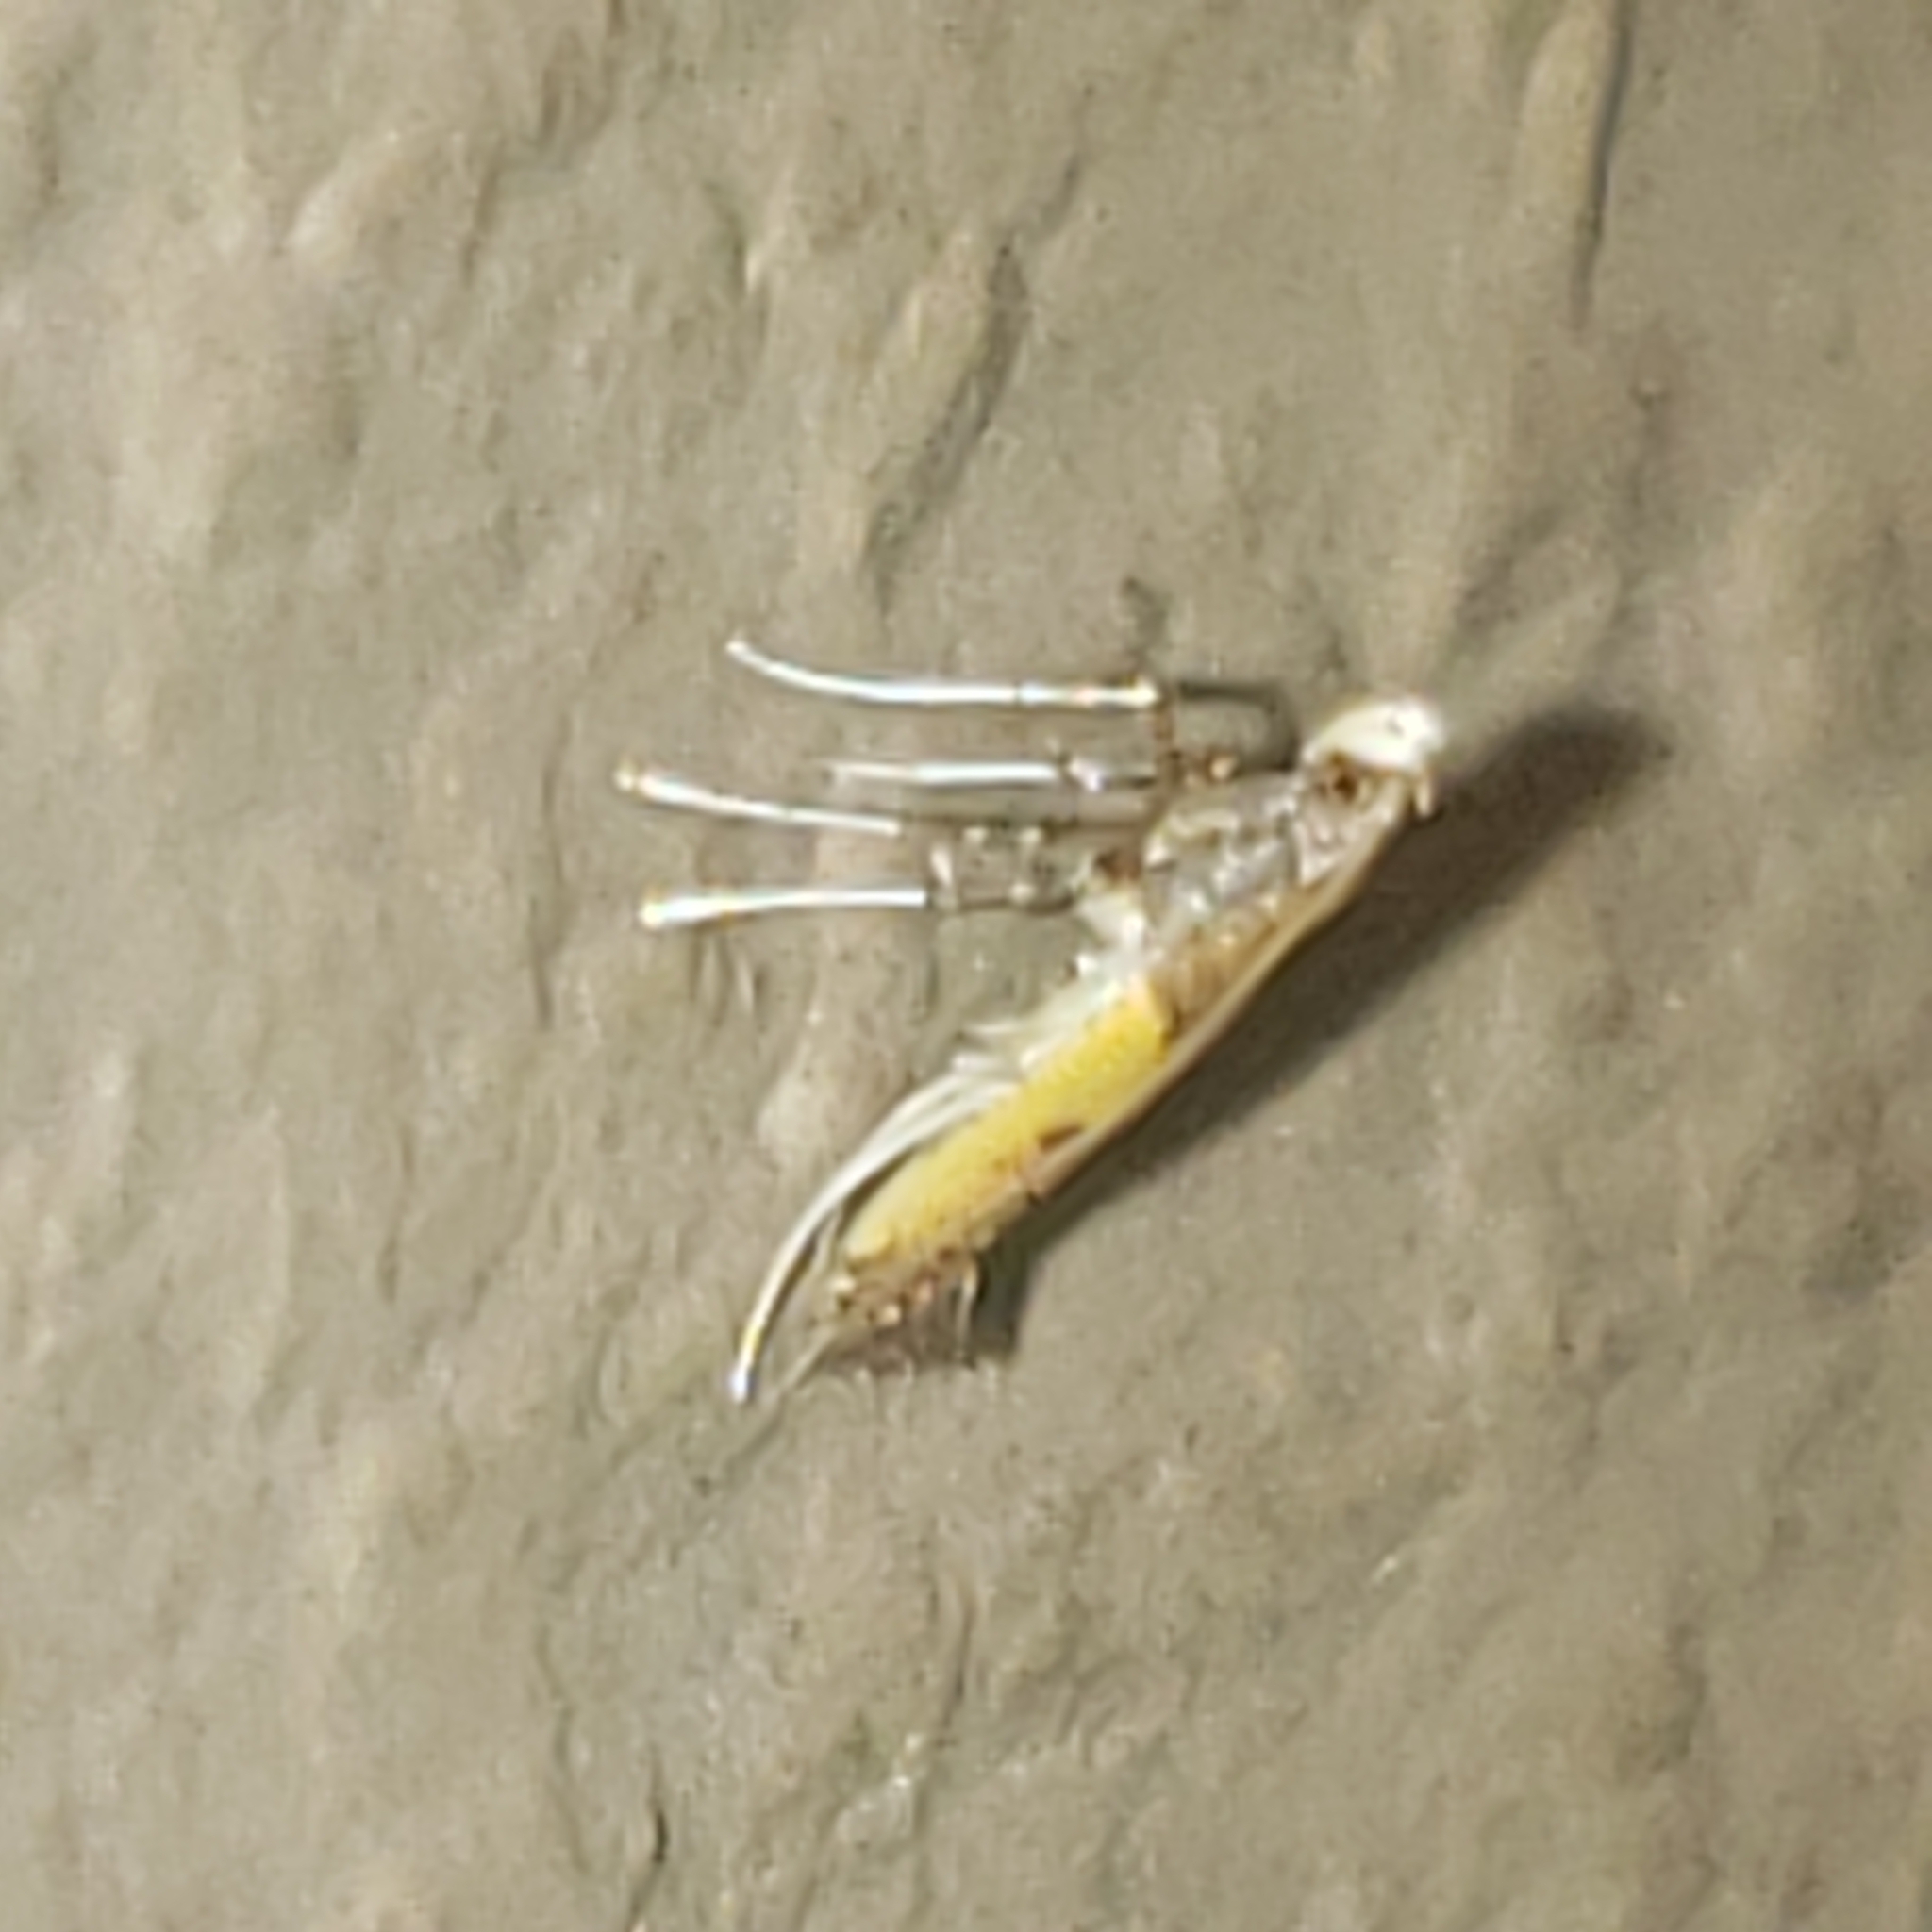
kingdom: Animalia
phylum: Arthropoda
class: Insecta
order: Lepidoptera
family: Gracillariidae
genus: Caloptilia
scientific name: Caloptilia azaleella
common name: Azalea leafminer
